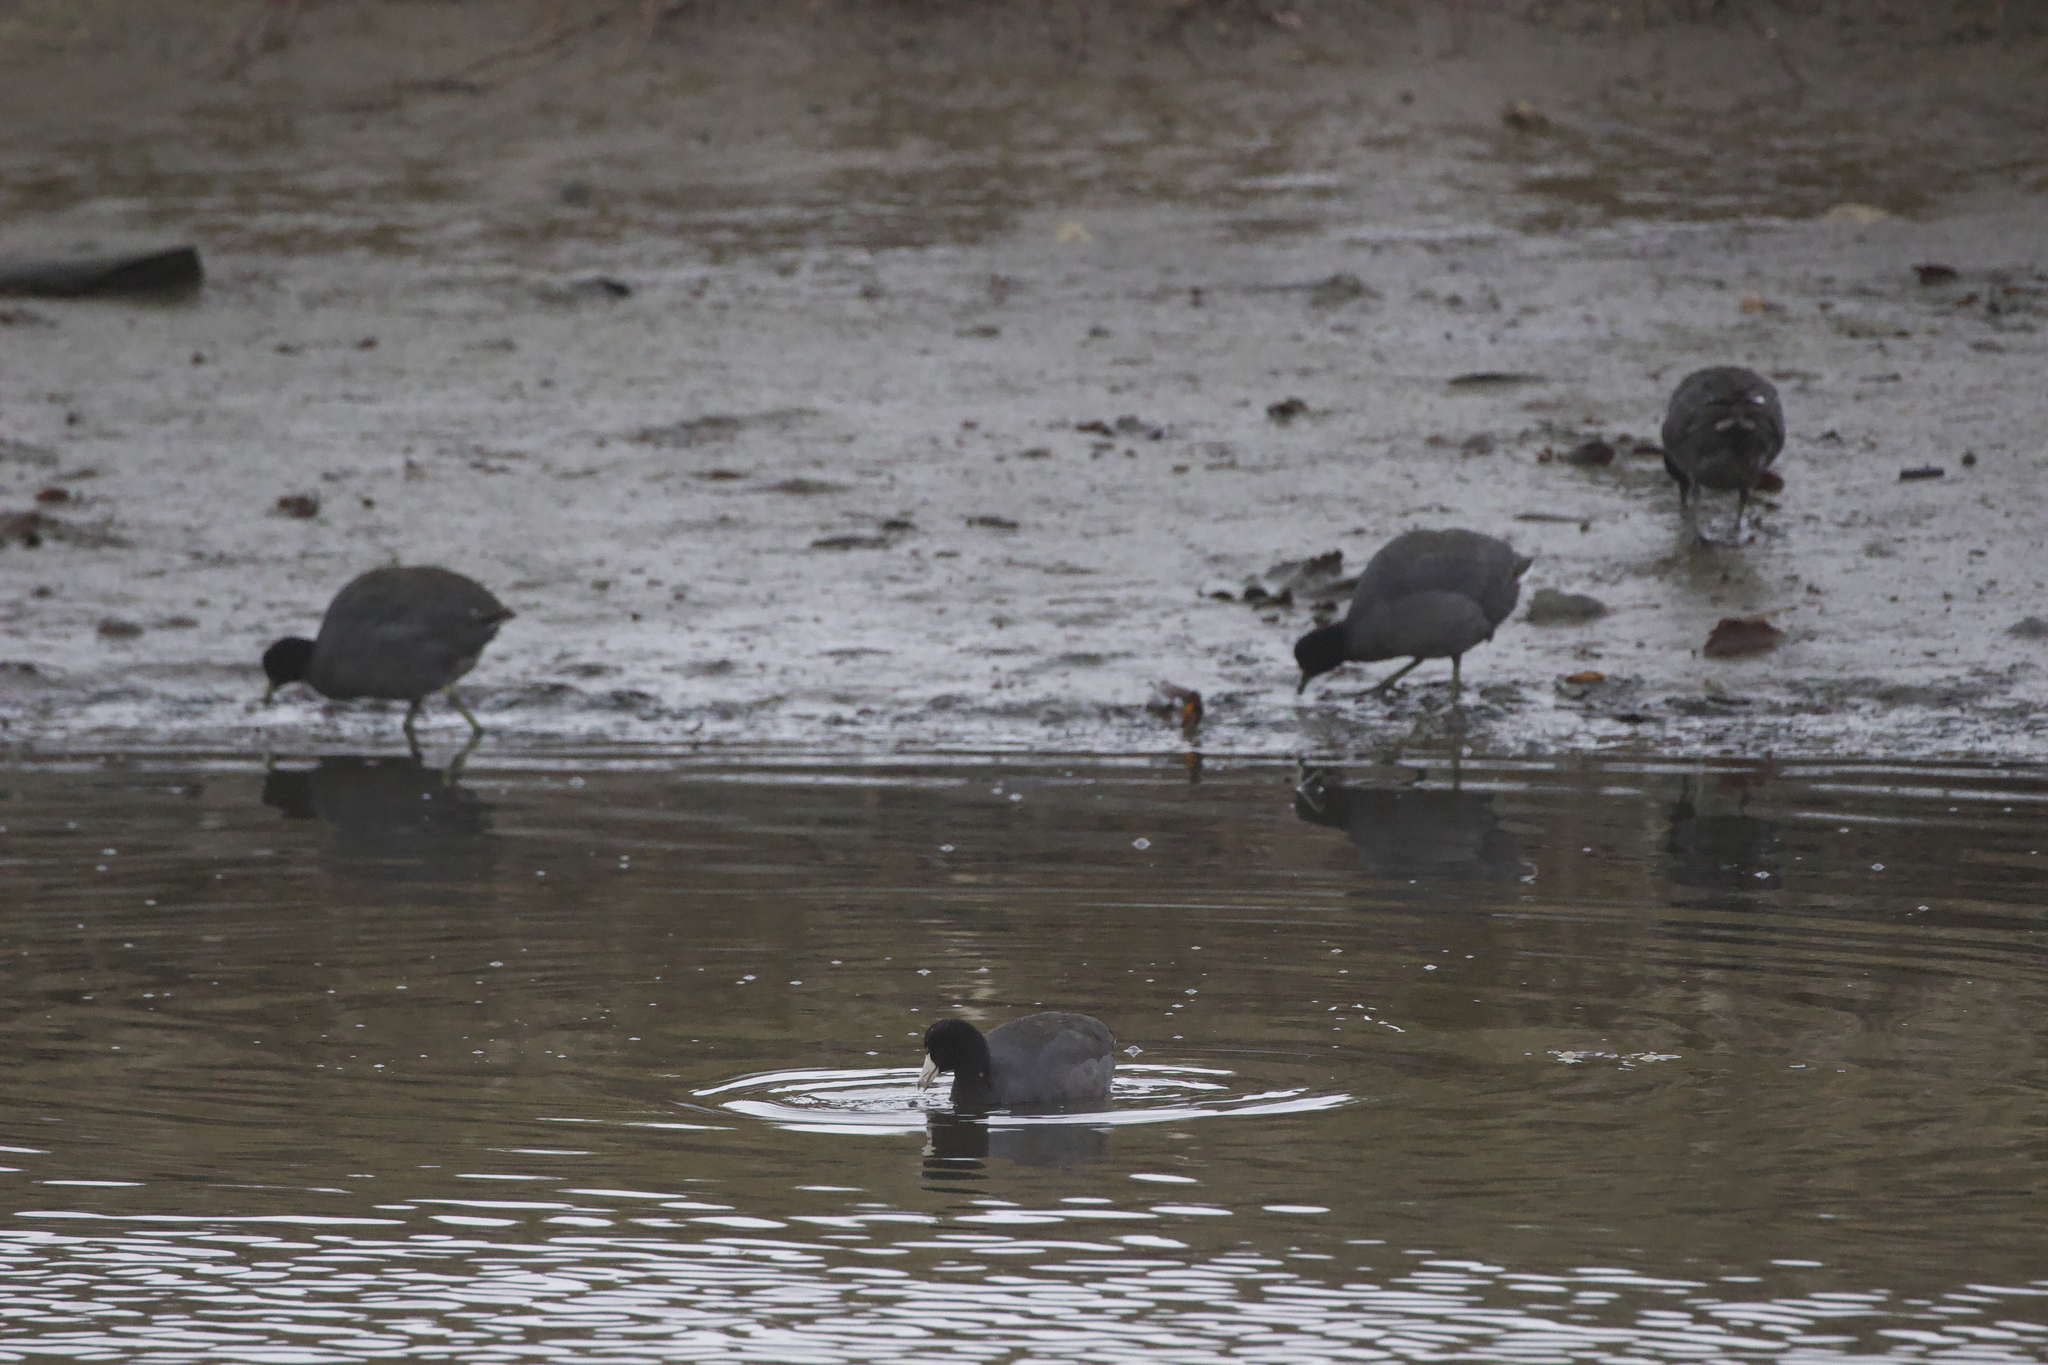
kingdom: Animalia
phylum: Chordata
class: Aves
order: Gruiformes
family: Rallidae
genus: Fulica
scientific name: Fulica americana
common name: American coot
